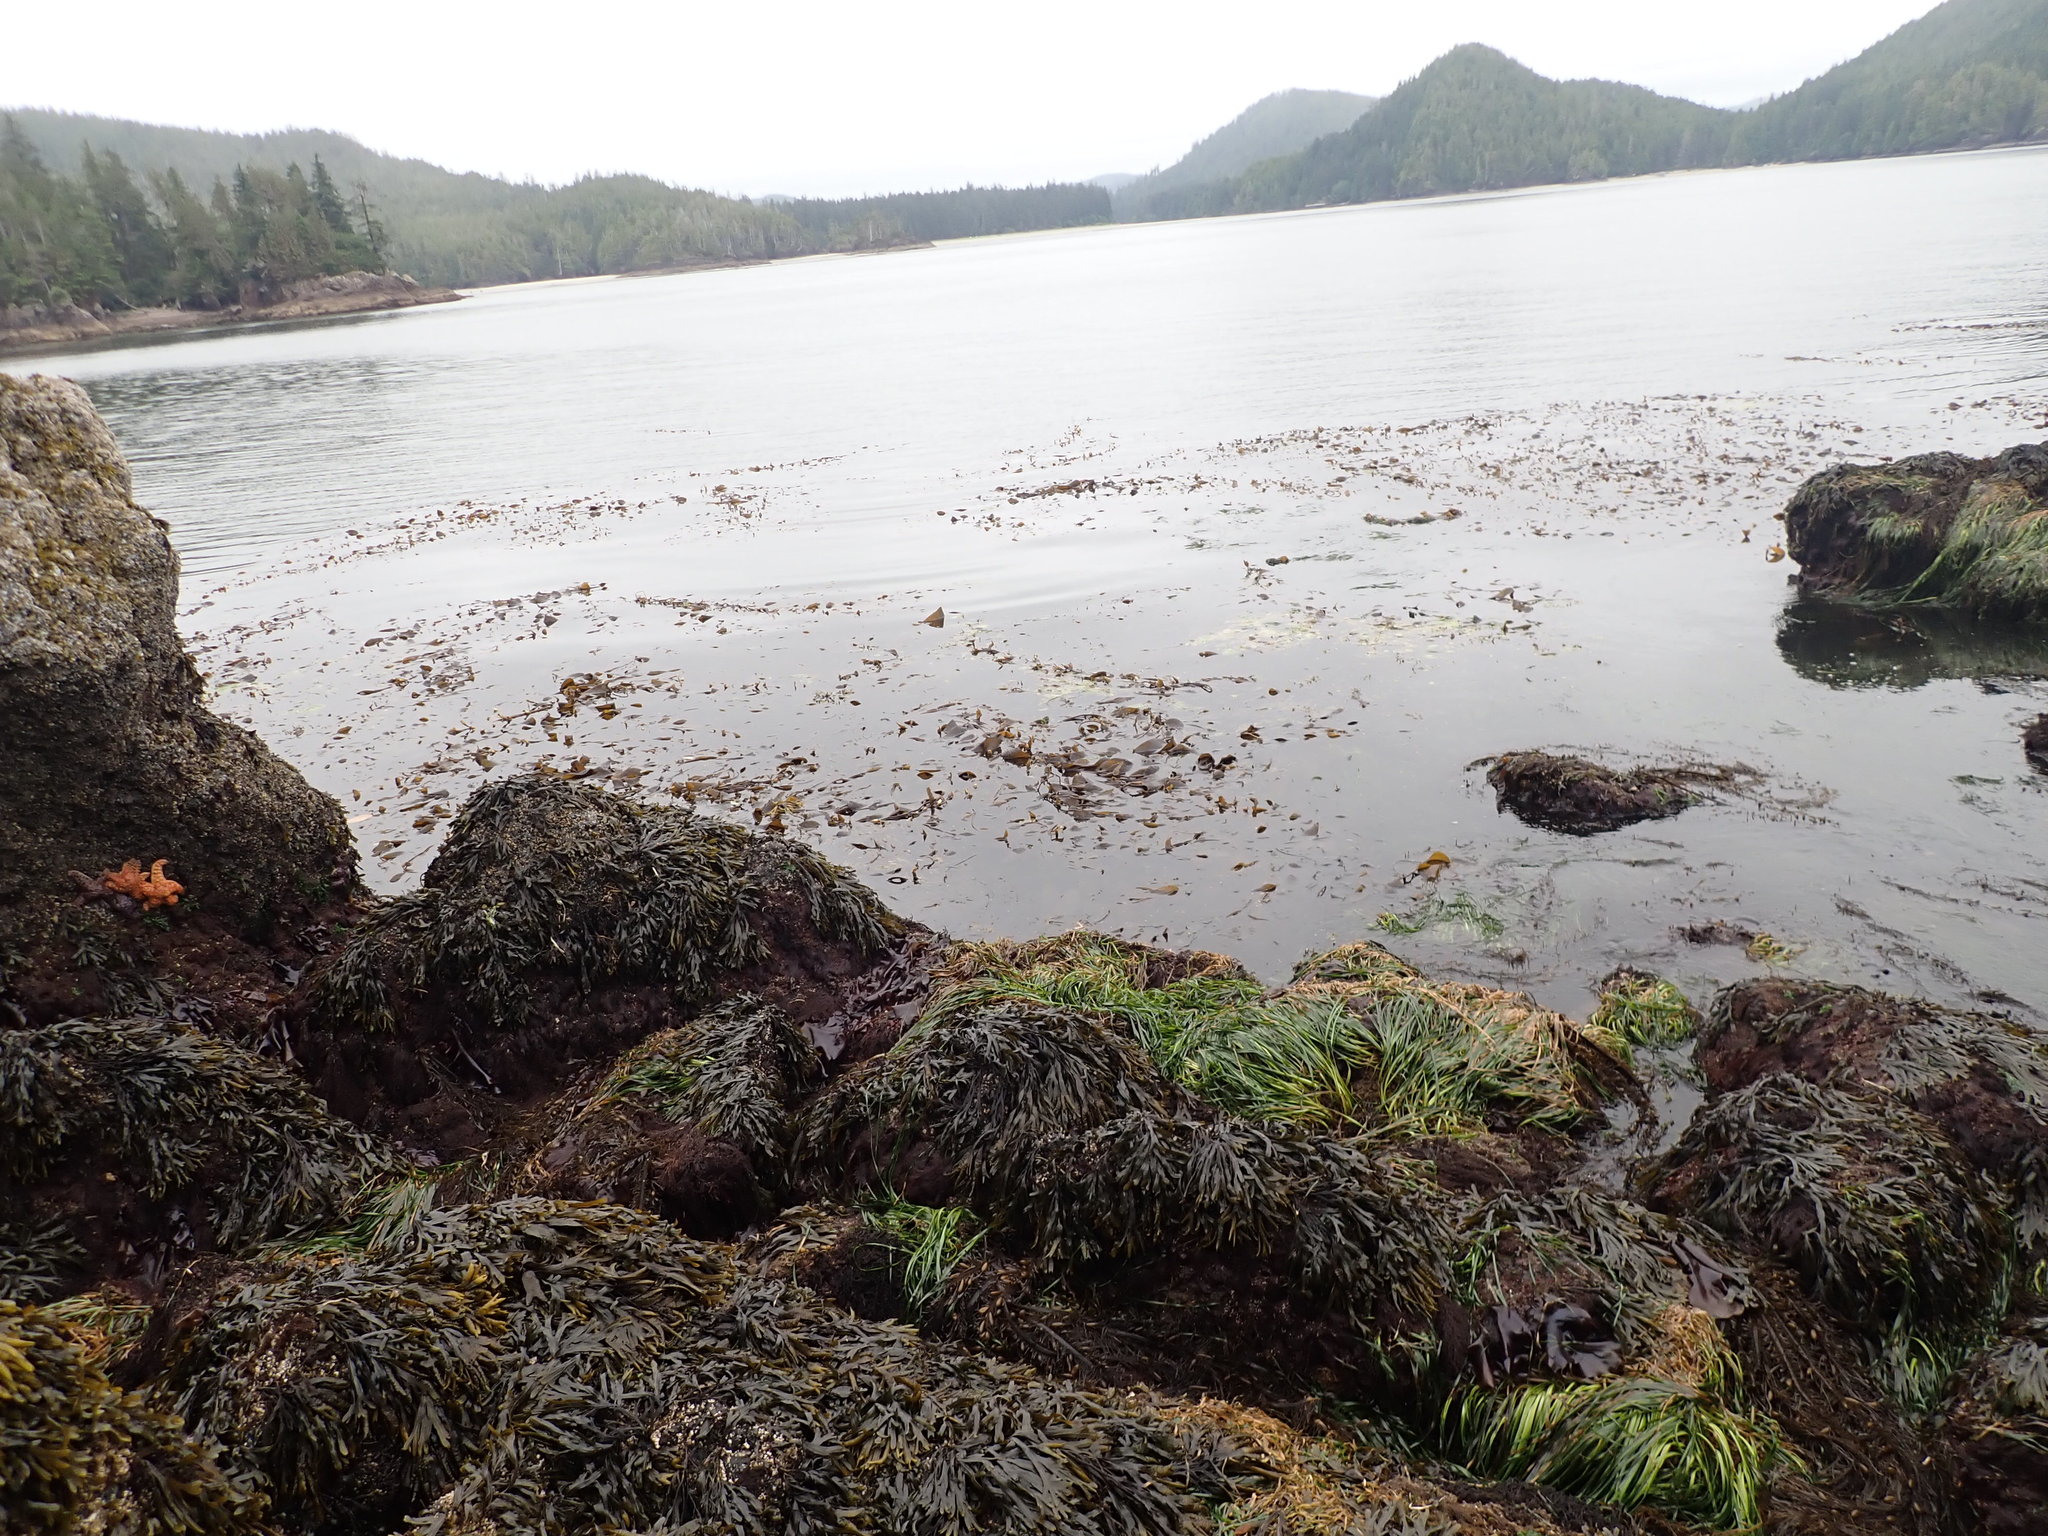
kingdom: Chromista
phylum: Ochrophyta
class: Phaeophyceae
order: Laminariales
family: Laminariaceae
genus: Macrocystis
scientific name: Macrocystis pyrifera
